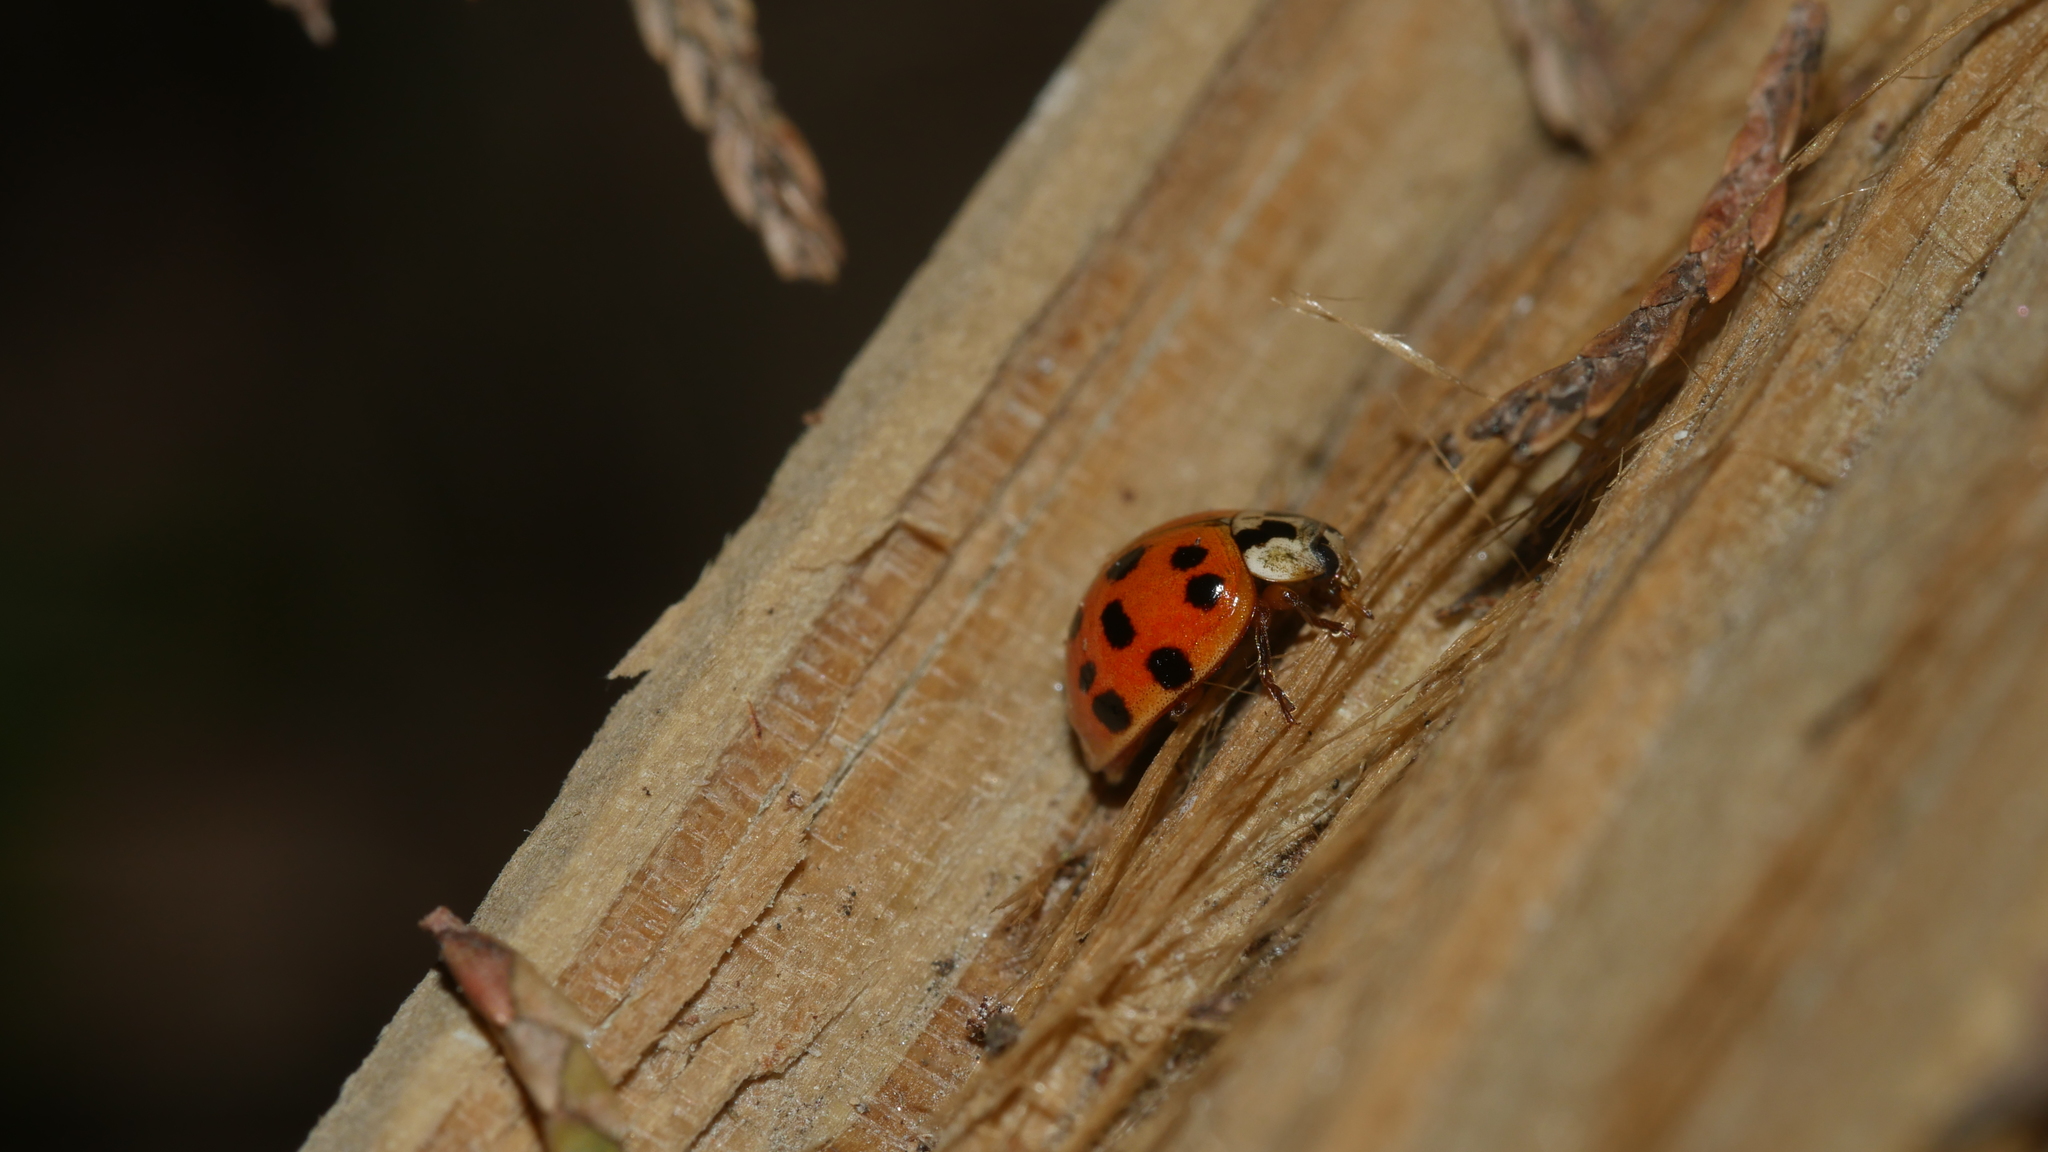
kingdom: Animalia
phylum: Arthropoda
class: Insecta
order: Coleoptera
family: Coccinellidae
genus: Harmonia
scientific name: Harmonia axyridis
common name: Harlequin ladybird
